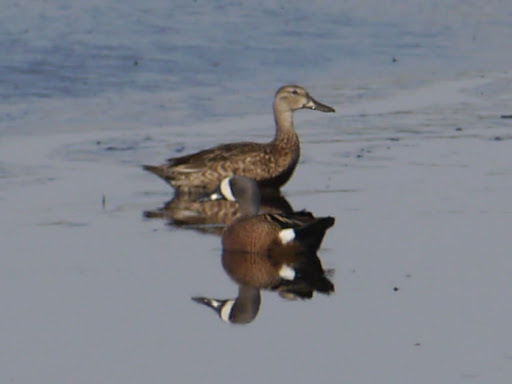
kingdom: Animalia
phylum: Chordata
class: Aves
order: Anseriformes
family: Anatidae
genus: Spatula
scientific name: Spatula discors
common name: Blue-winged teal
